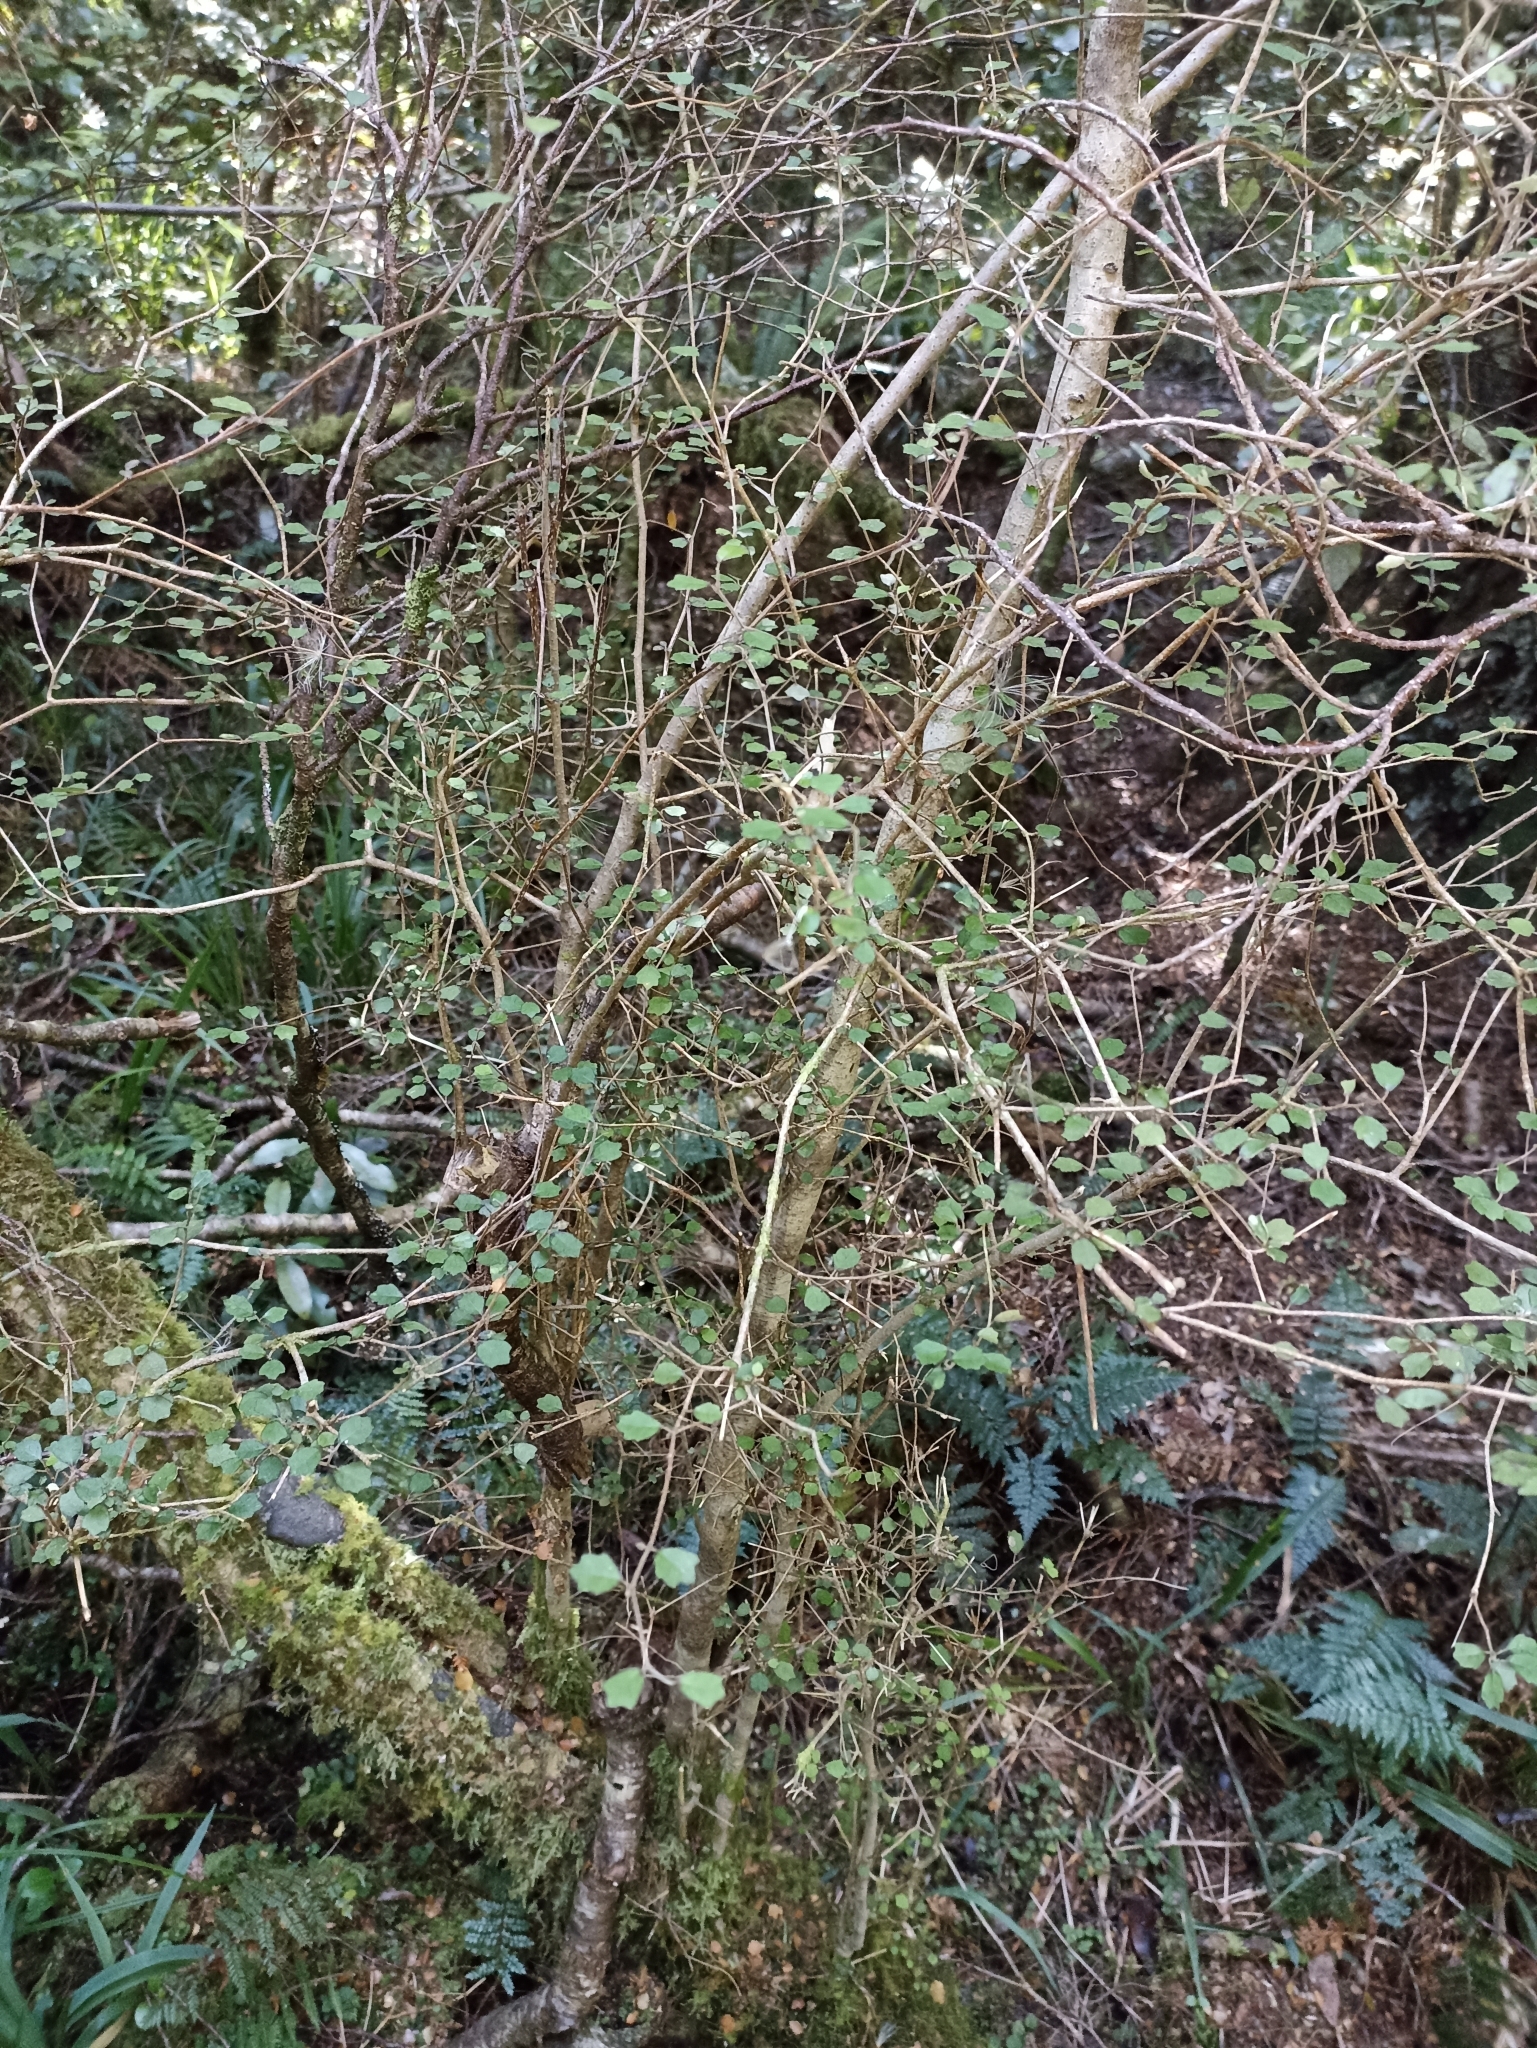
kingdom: Plantae
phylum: Tracheophyta
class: Magnoliopsida
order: Apiales
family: Pennantiaceae
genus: Pennantia
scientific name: Pennantia corymbosa
